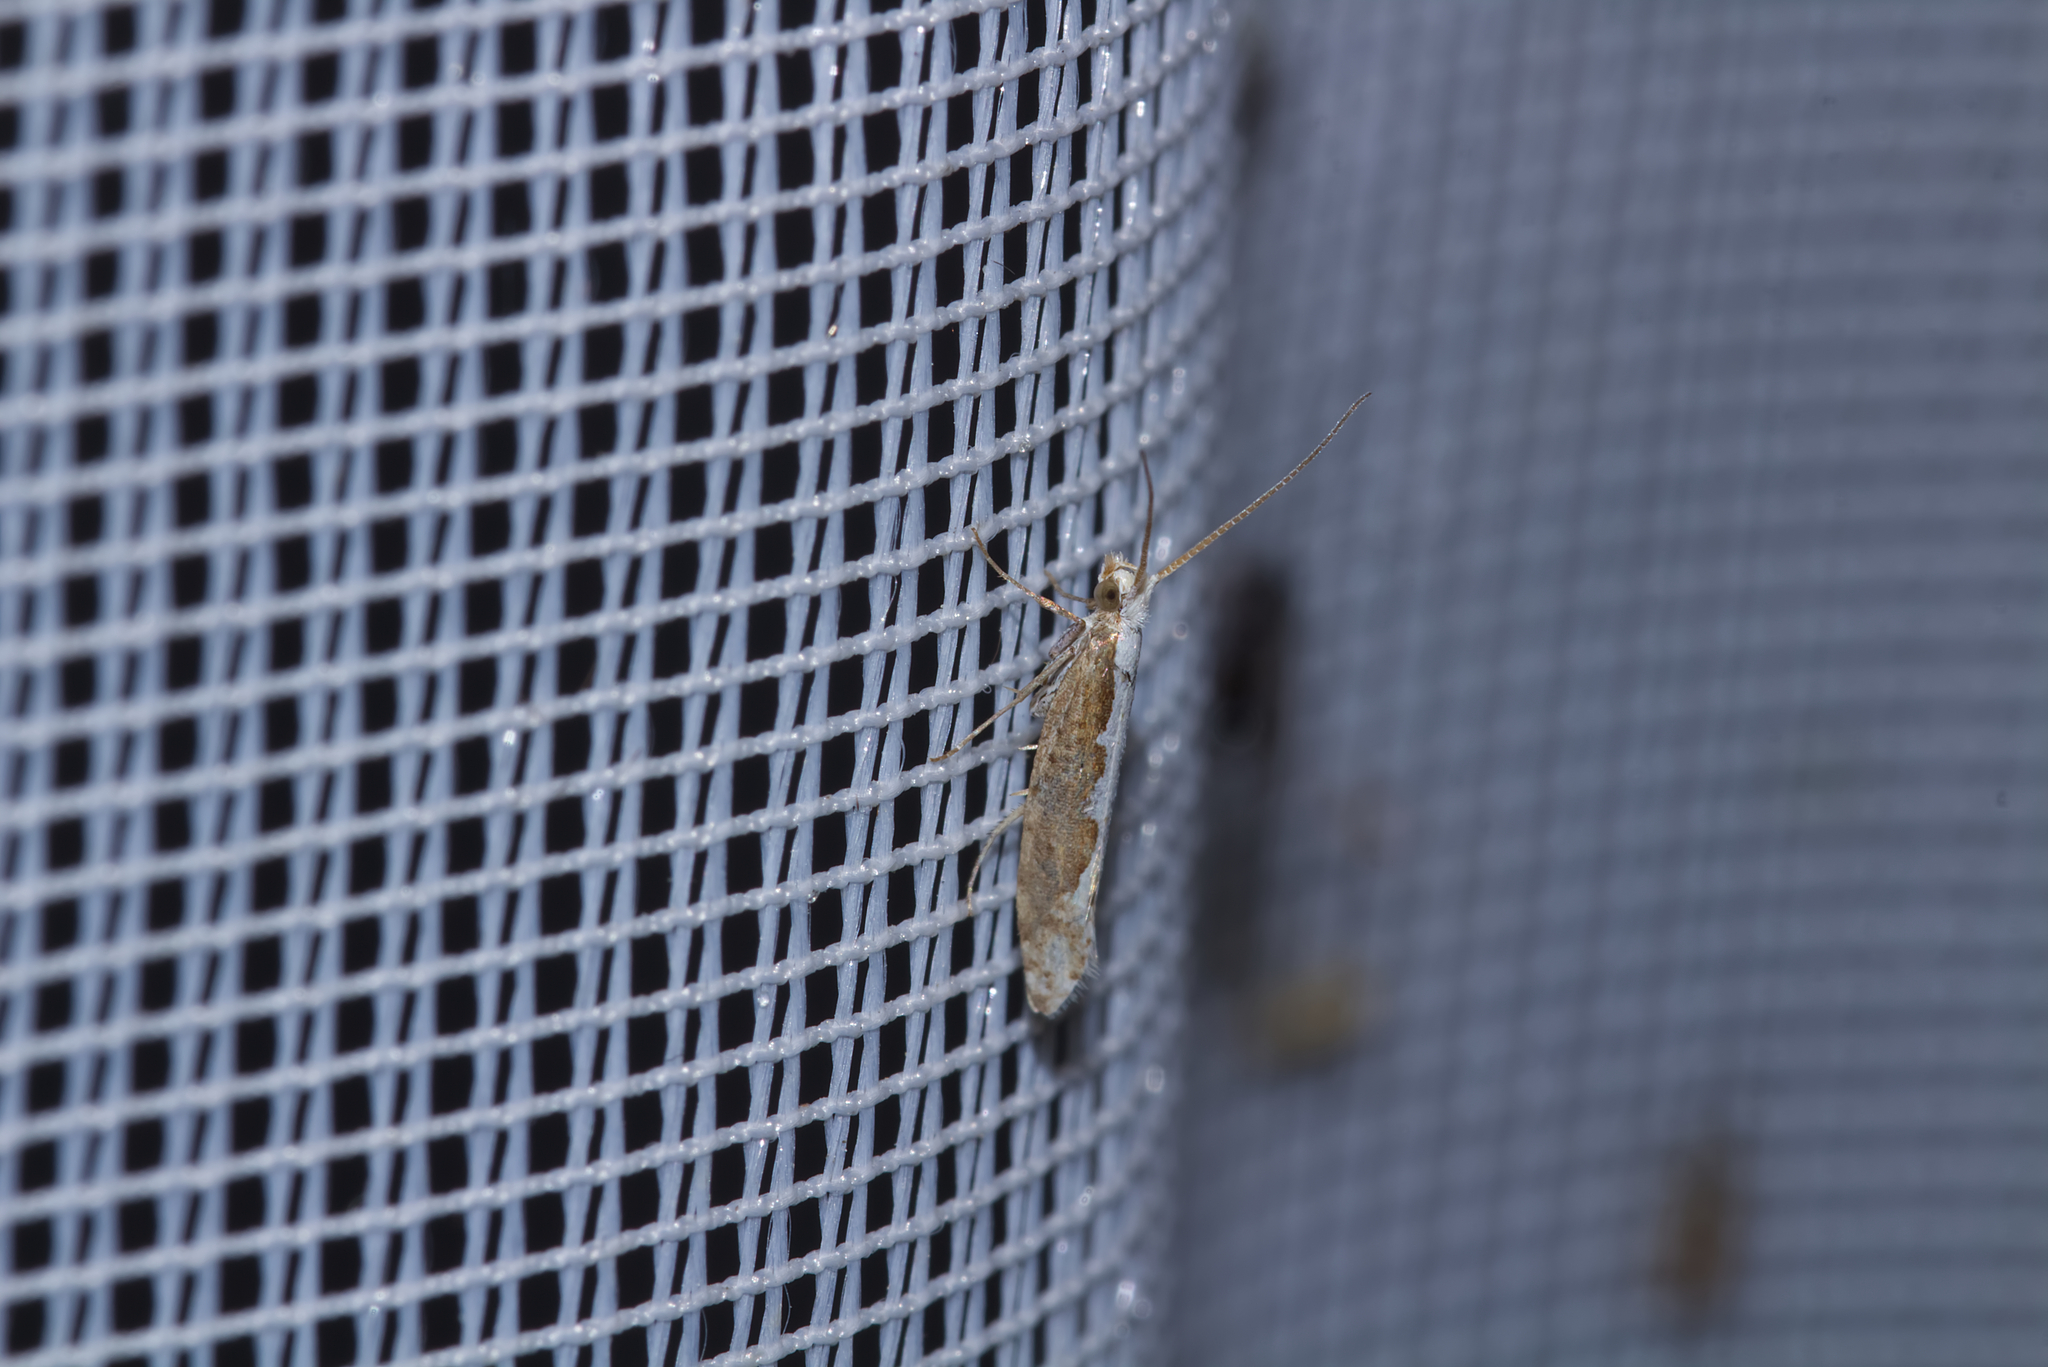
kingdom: Animalia
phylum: Arthropoda
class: Insecta
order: Lepidoptera
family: Plutellidae
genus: Plutella
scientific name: Plutella xylostella
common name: Diamond-back moth
